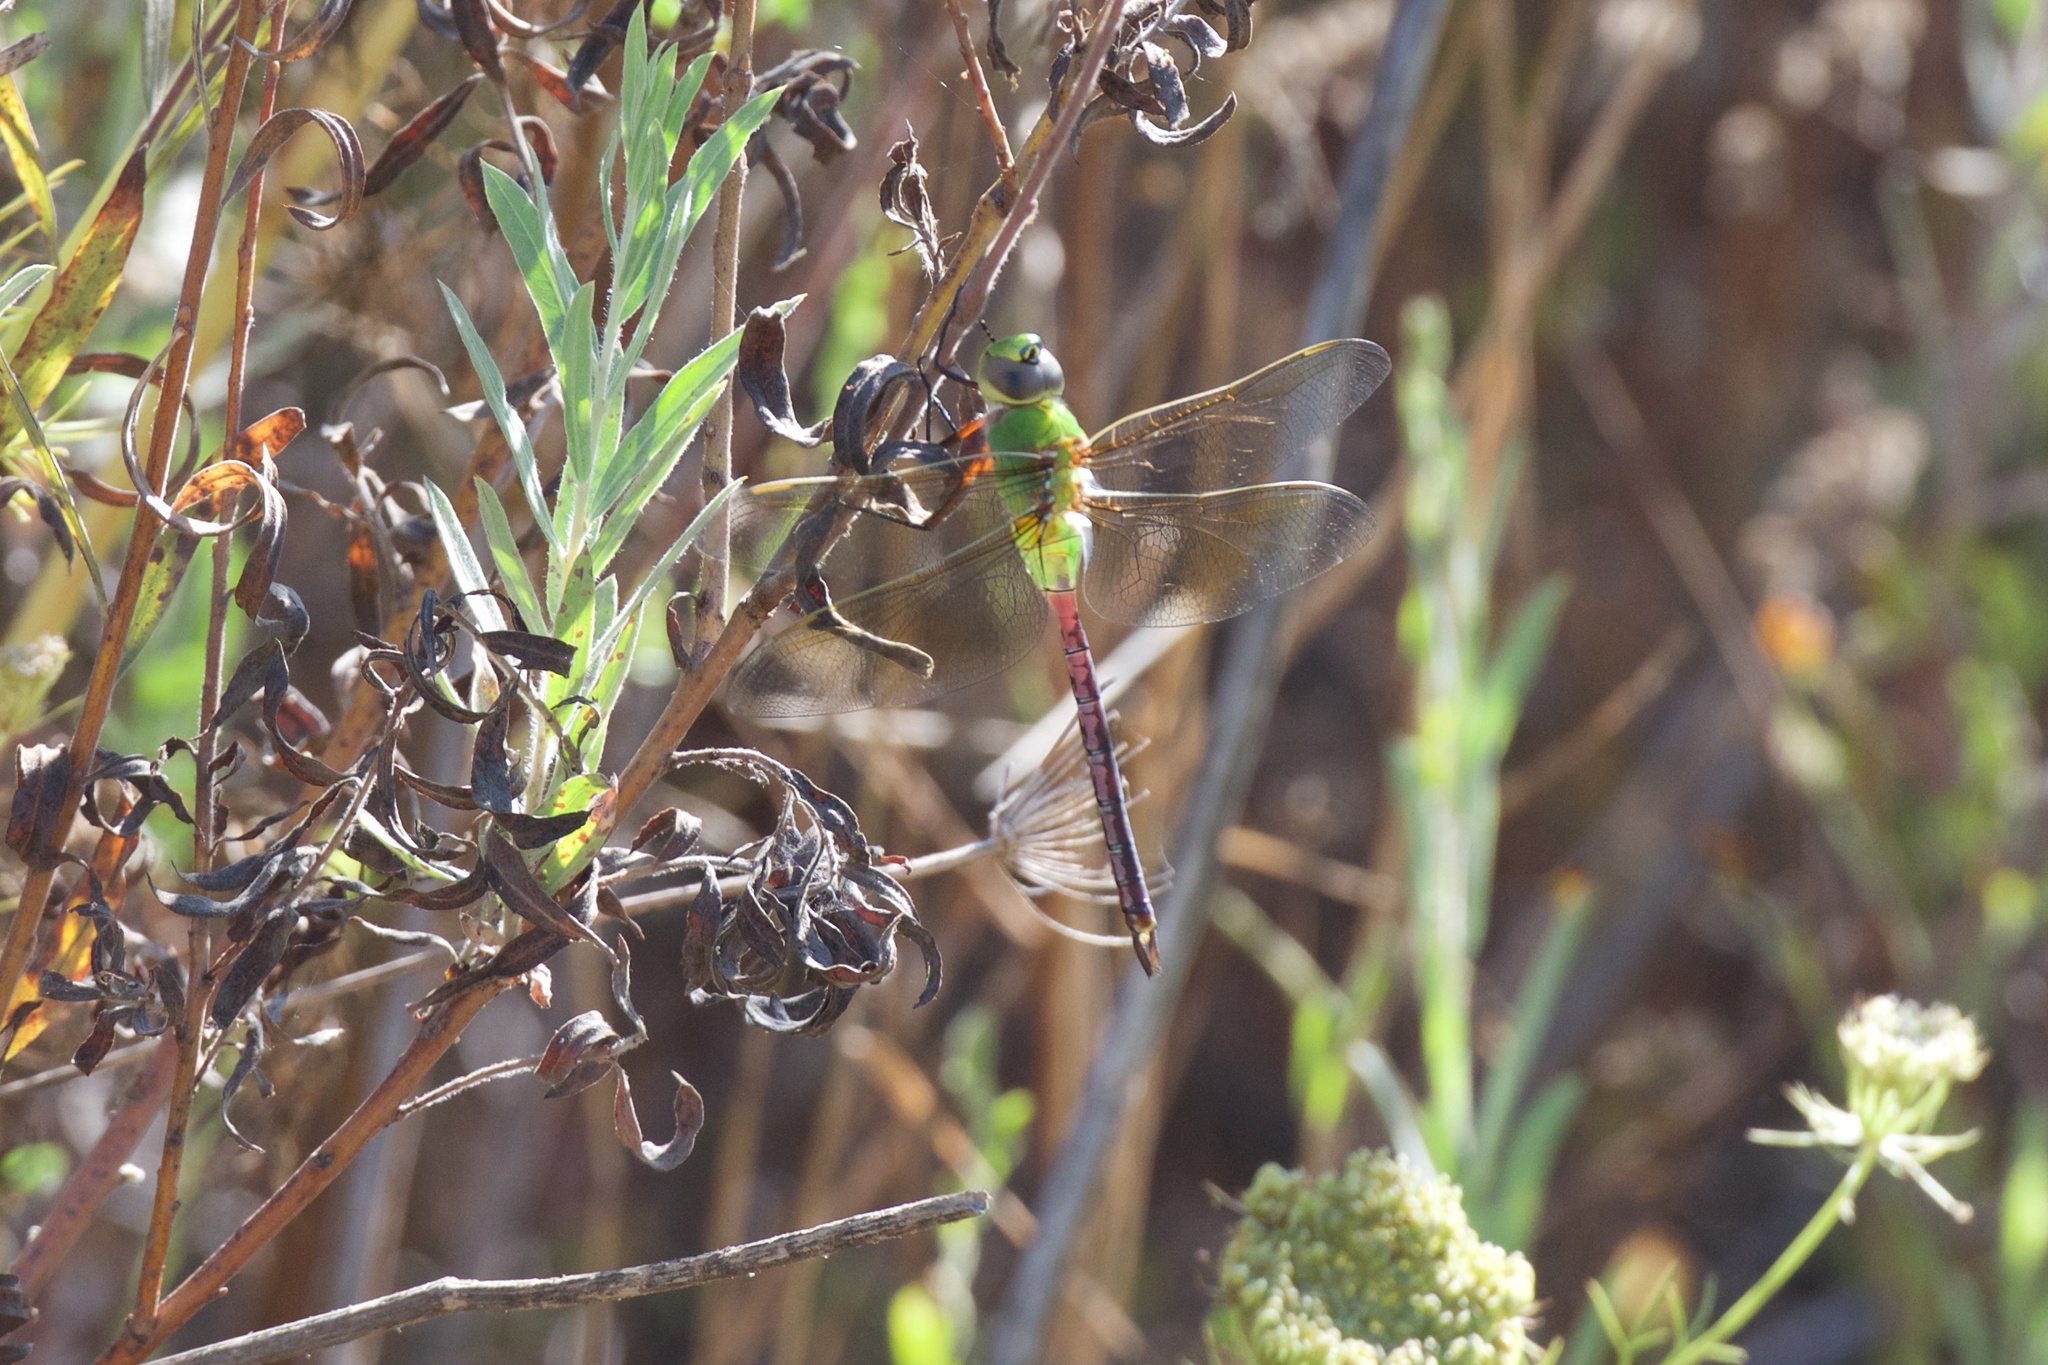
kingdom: Animalia
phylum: Arthropoda
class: Insecta
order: Odonata
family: Aeshnidae
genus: Anax
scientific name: Anax junius
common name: Common green darner
